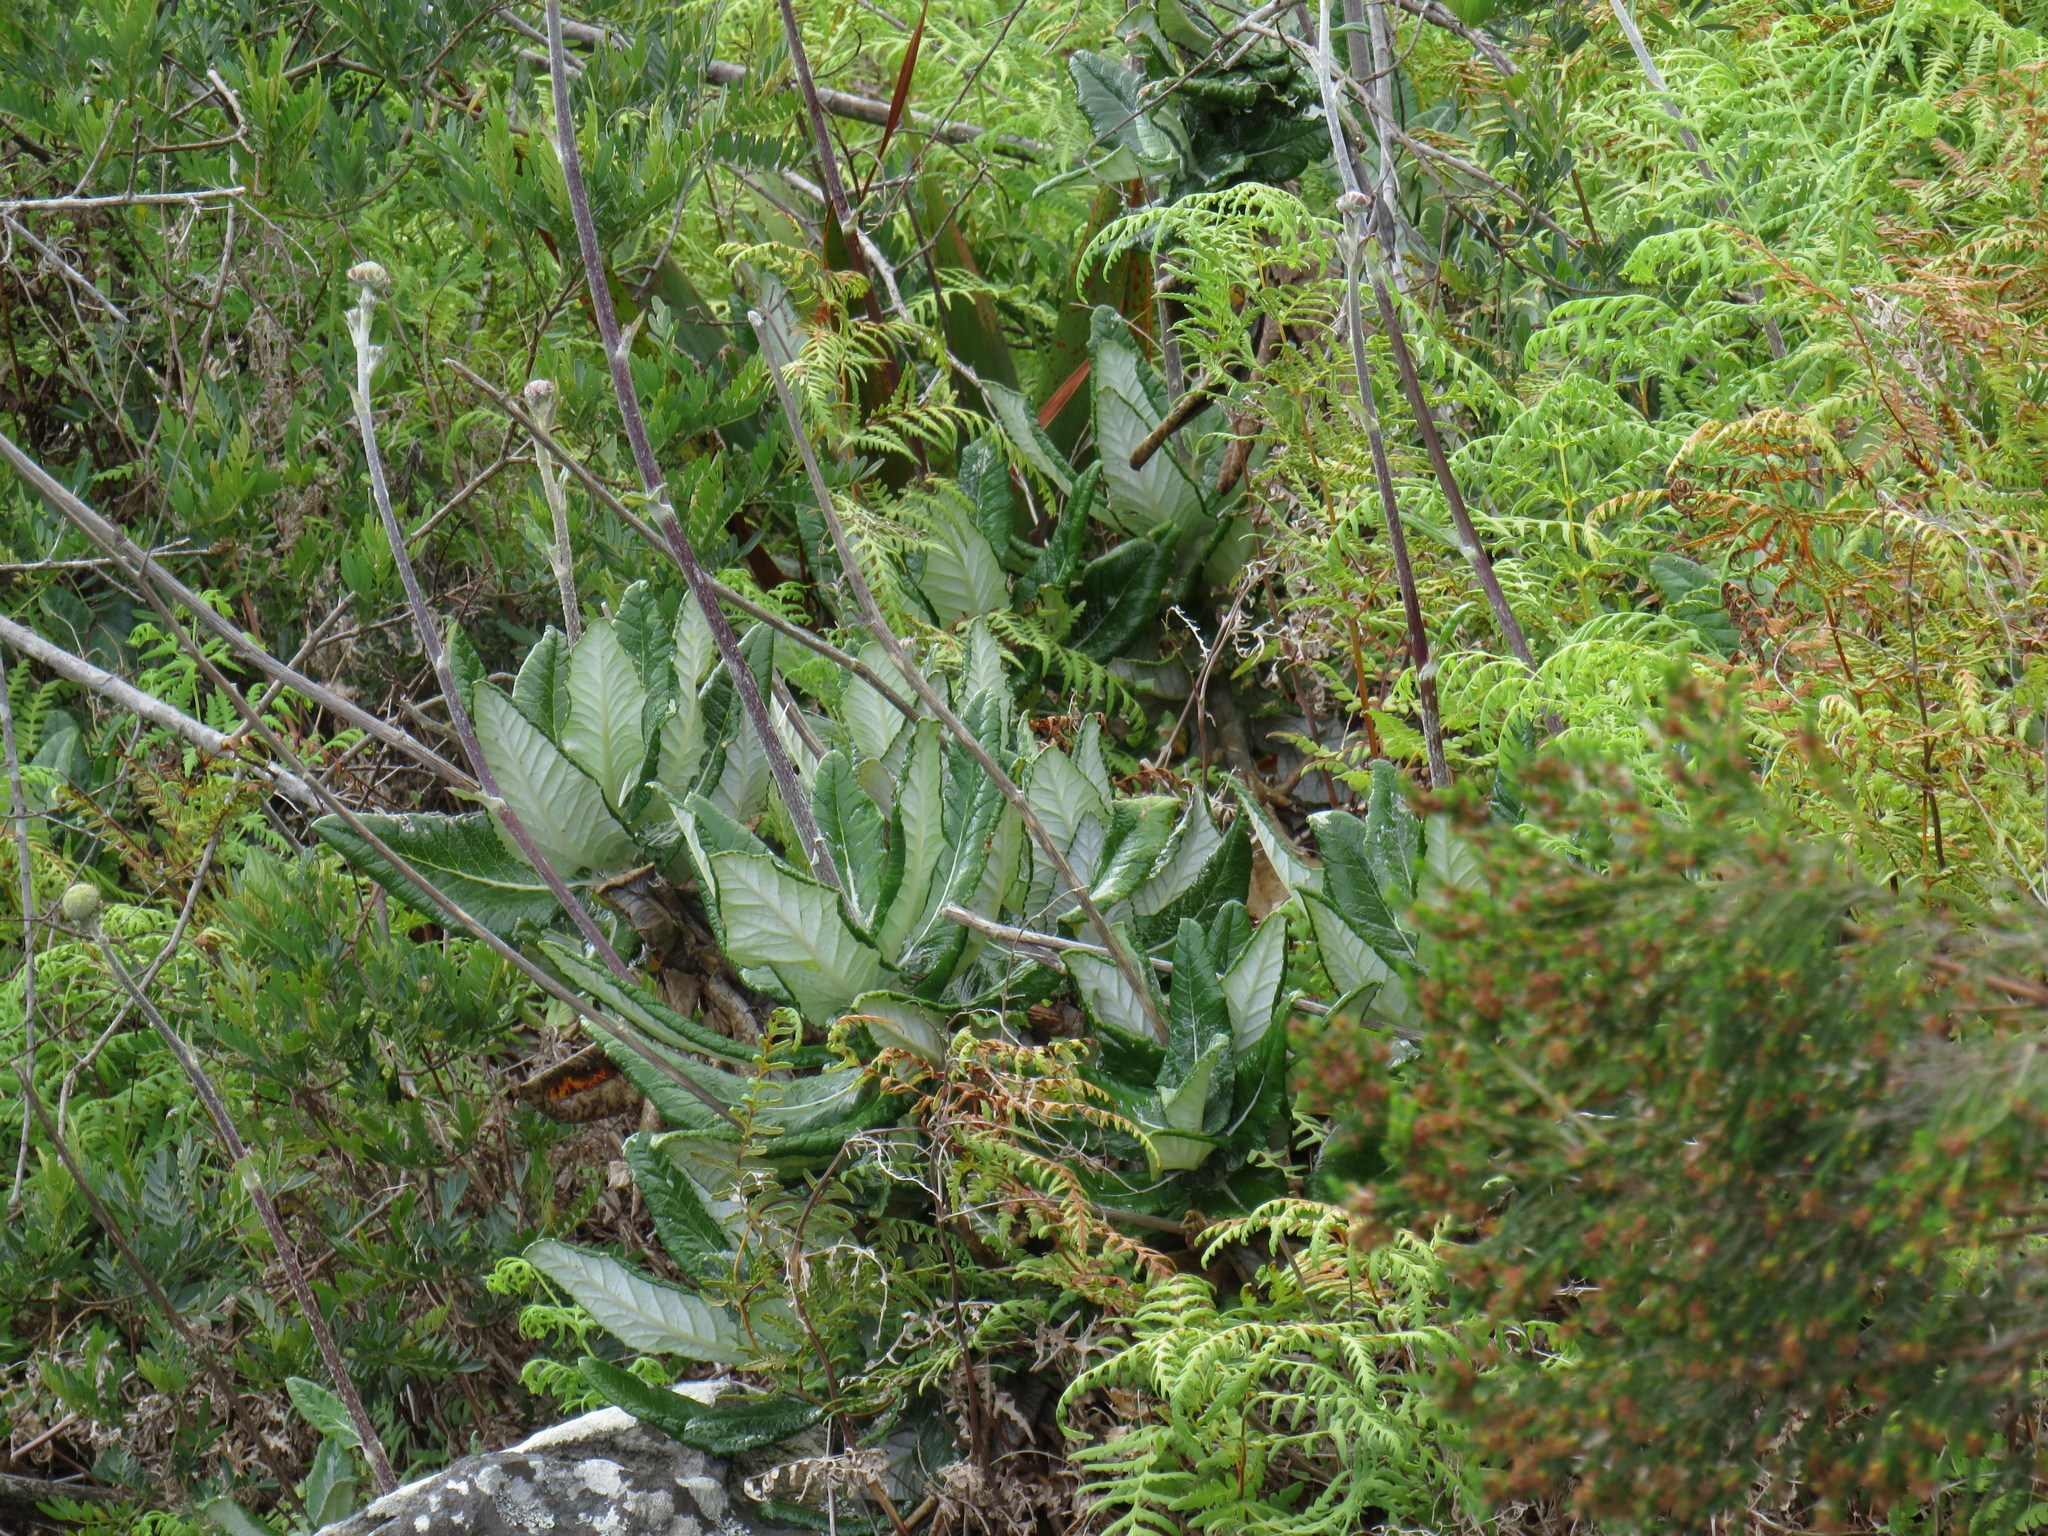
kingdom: Plantae
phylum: Tracheophyta
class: Magnoliopsida
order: Apiales
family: Apiaceae
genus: Hermas
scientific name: Hermas villosa
